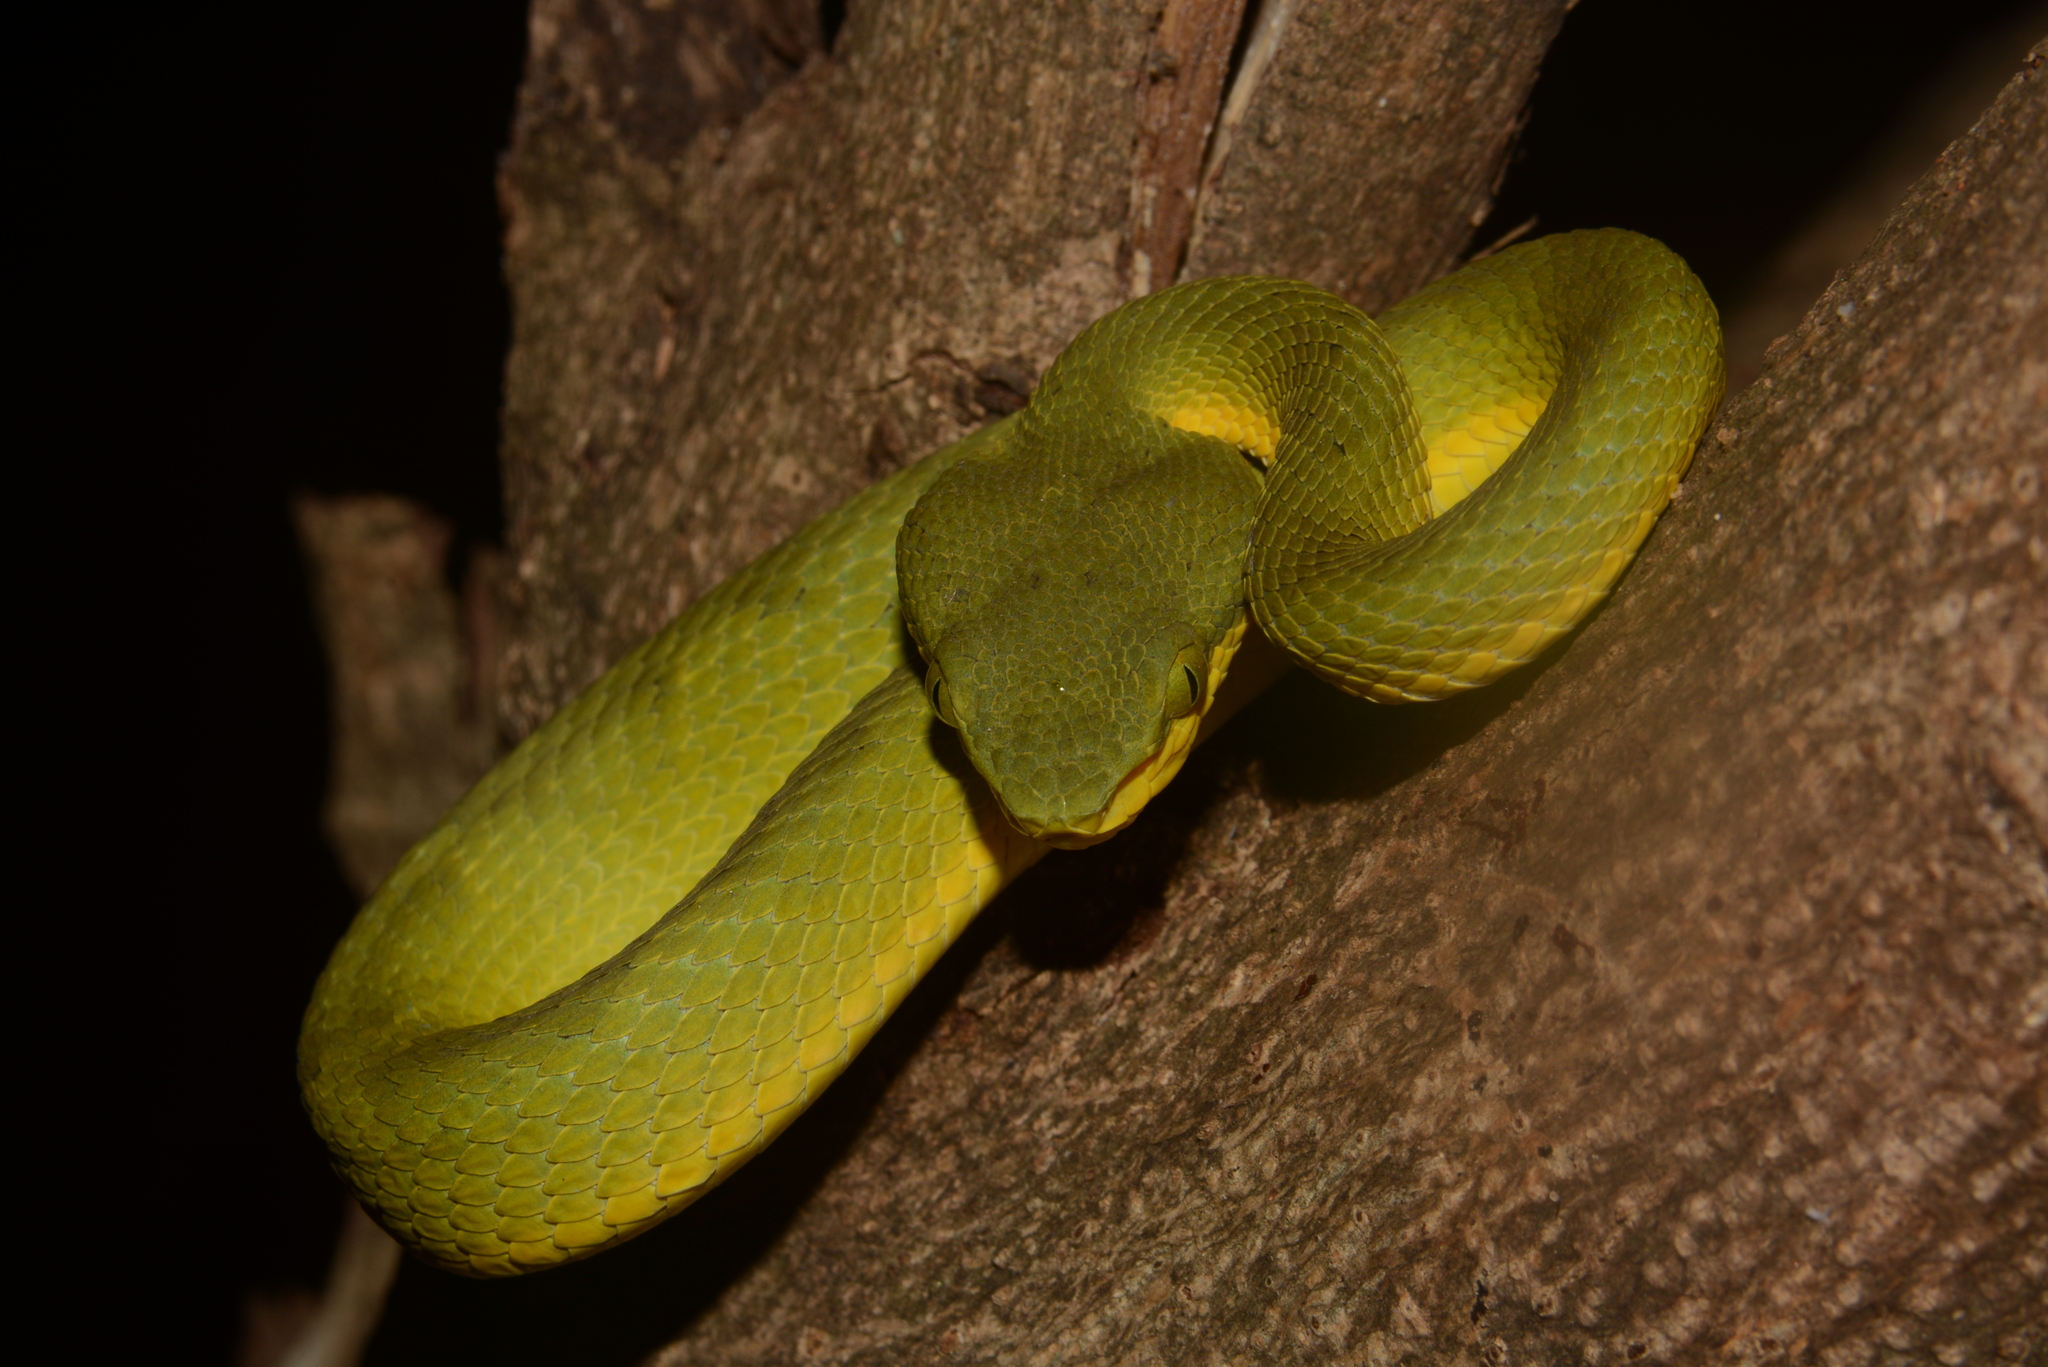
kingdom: Animalia
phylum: Chordata
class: Squamata
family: Viperidae
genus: Craspedocephalus
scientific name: Craspedocephalus gramineus
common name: Common bamboo viper
